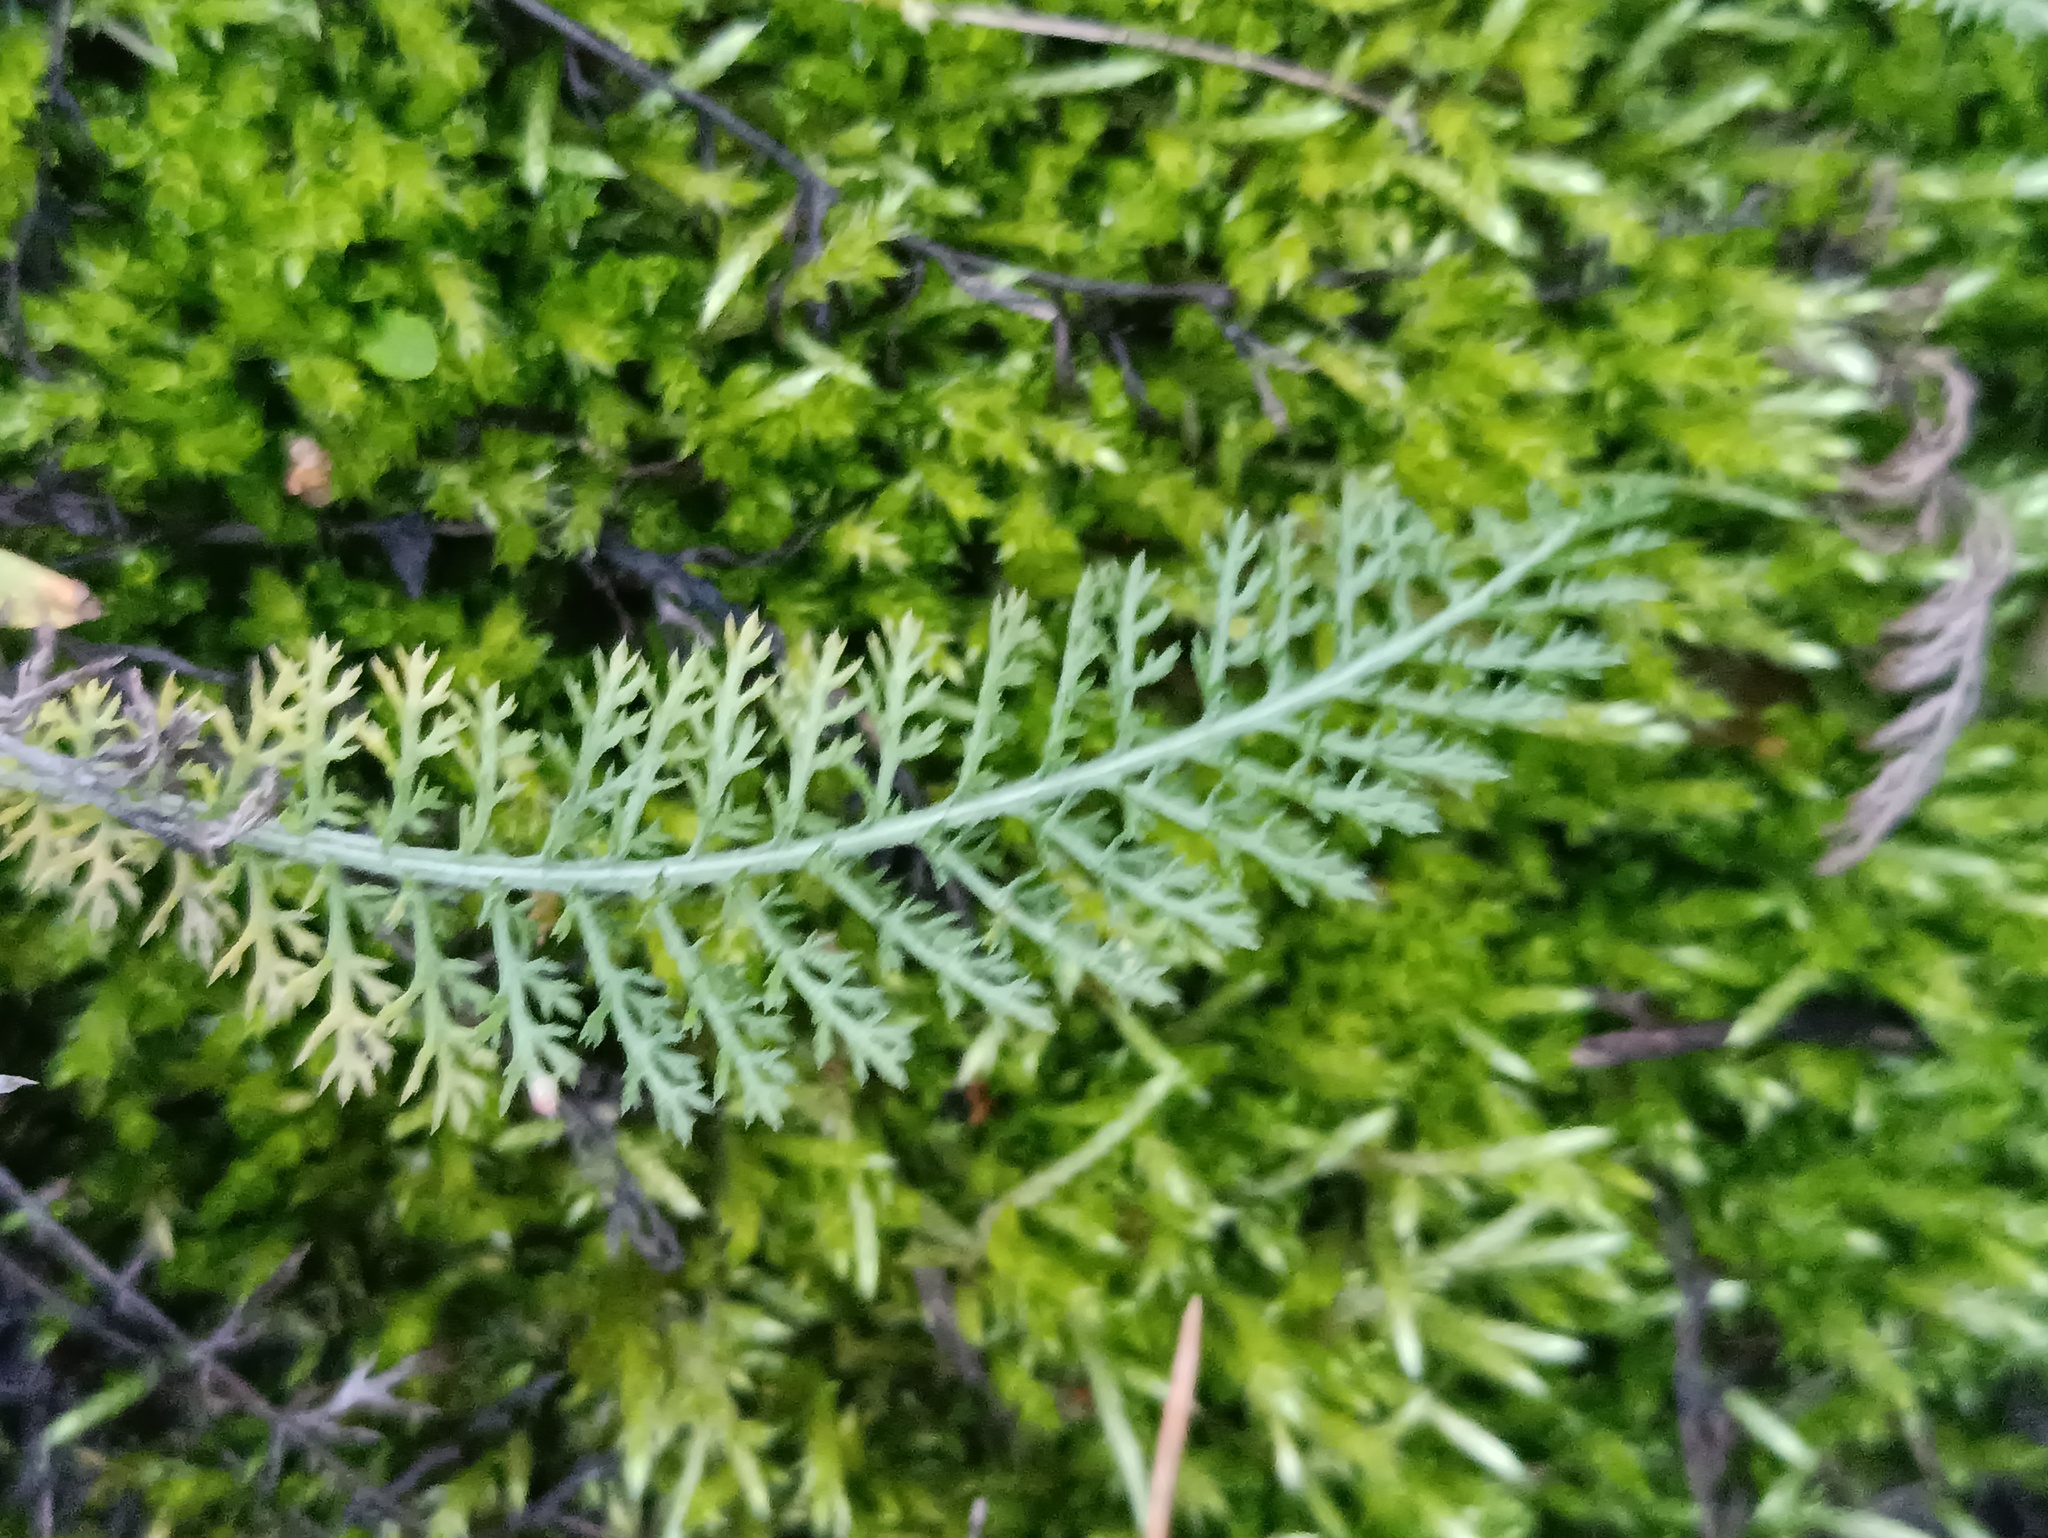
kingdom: Plantae
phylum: Tracheophyta
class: Magnoliopsida
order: Asterales
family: Asteraceae
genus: Achillea
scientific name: Achillea millefolium
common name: Yarrow
